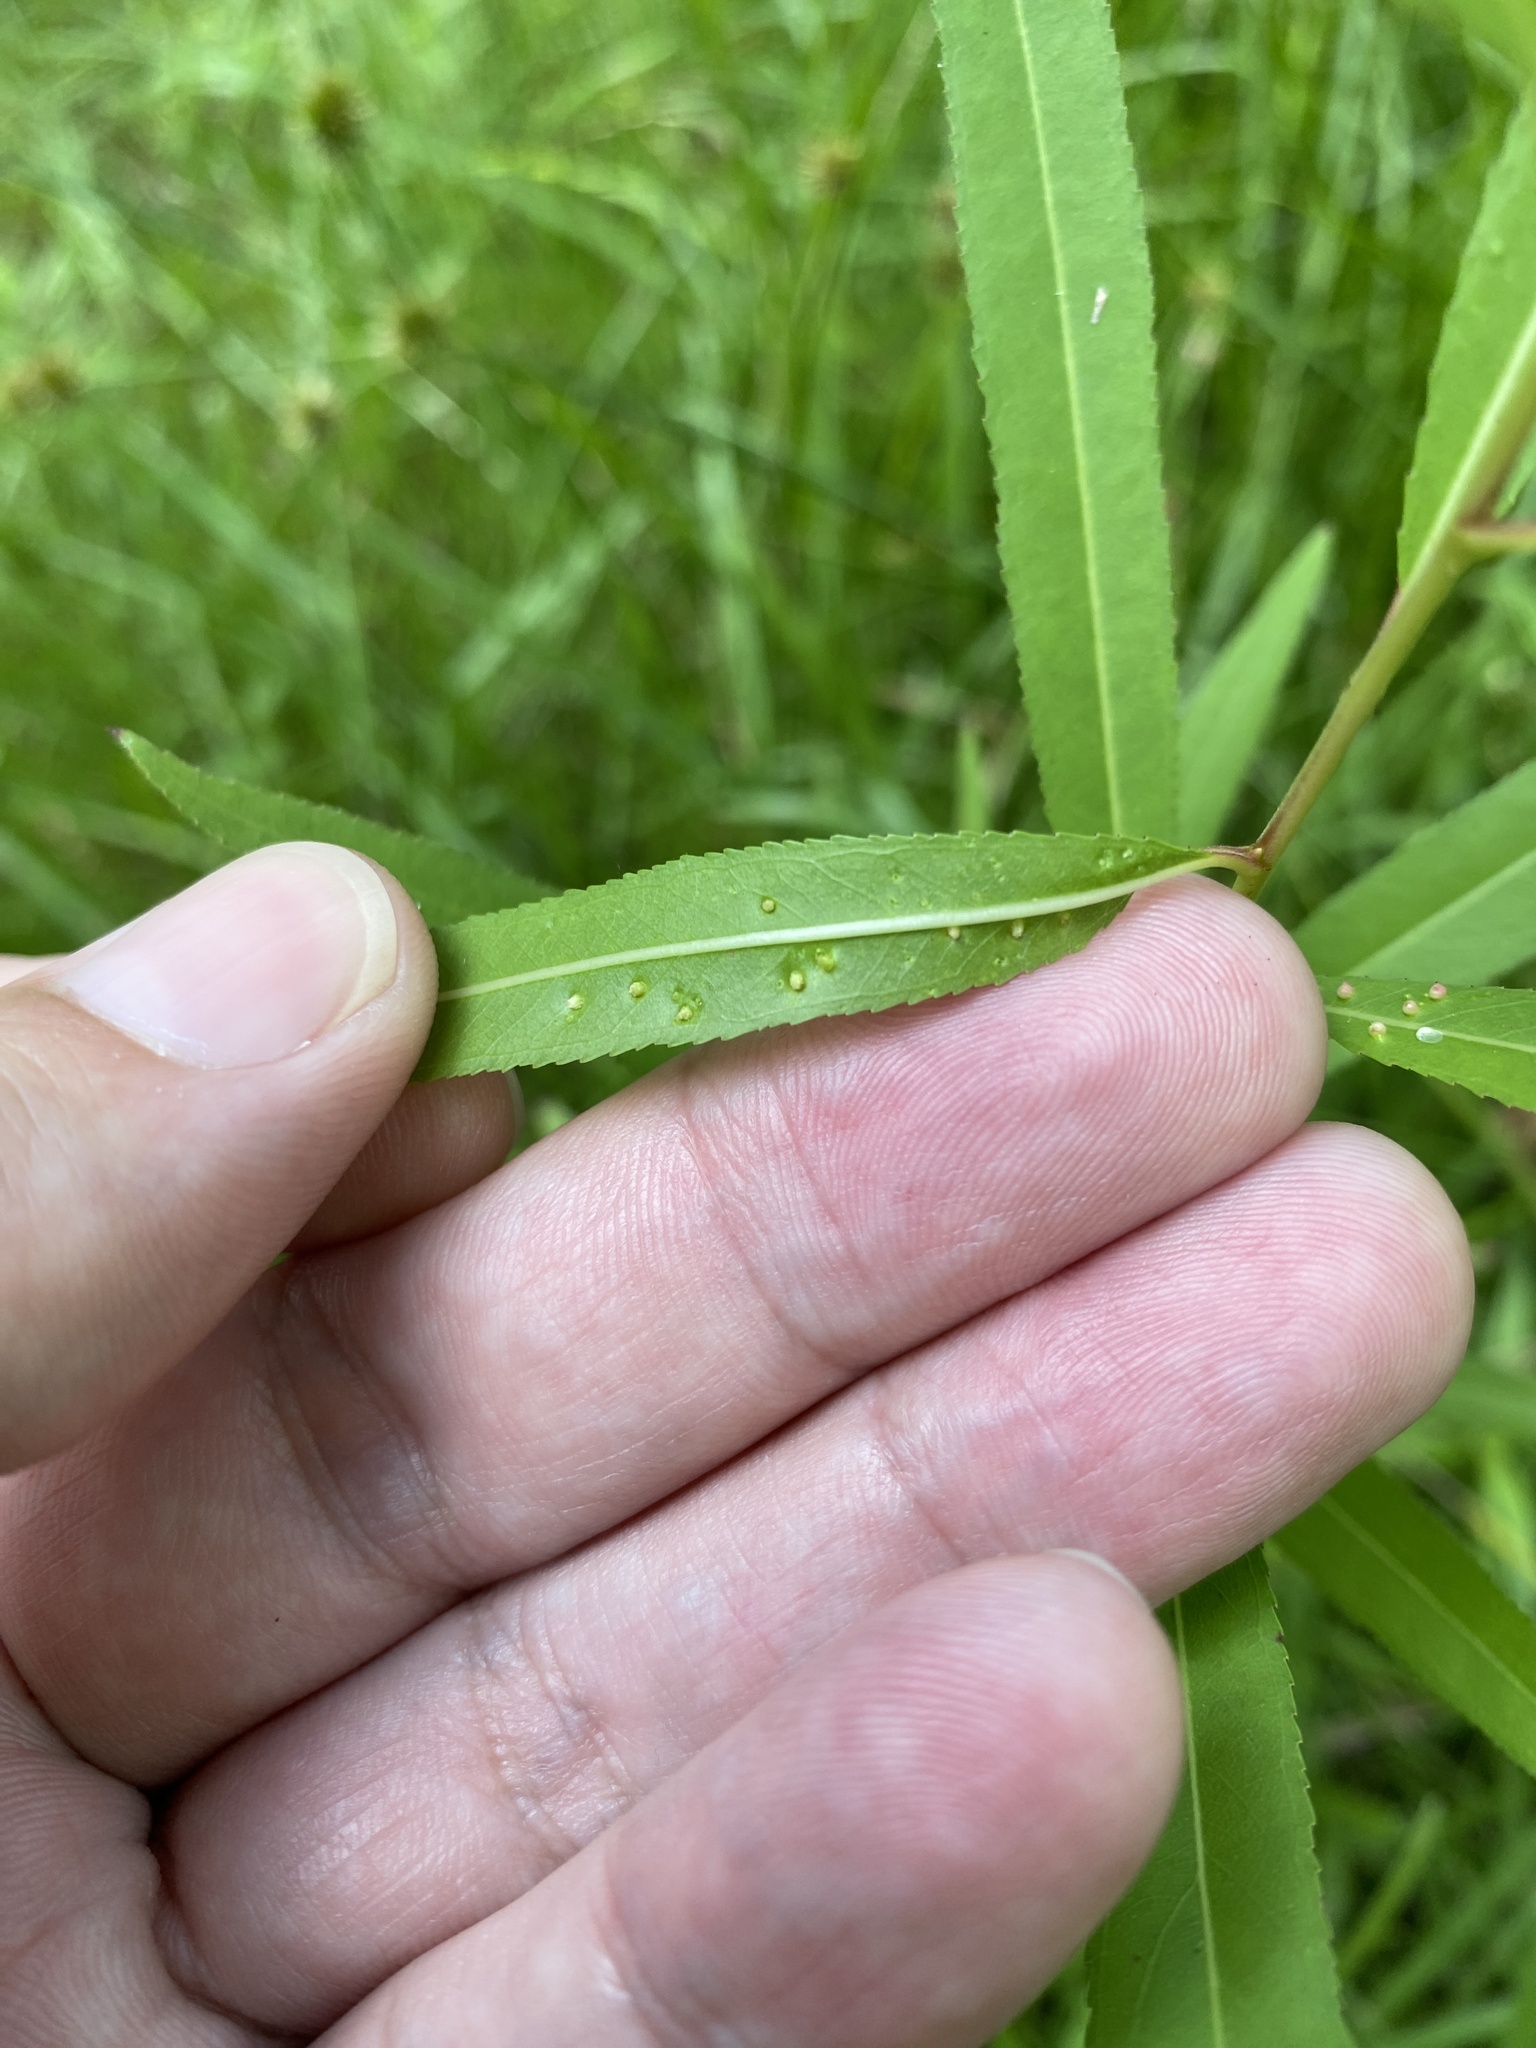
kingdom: Animalia
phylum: Arthropoda
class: Arachnida
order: Trombidiformes
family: Eriophyidae
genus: Aculus
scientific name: Aculus tetanothrix
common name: Willow bead gall mite
